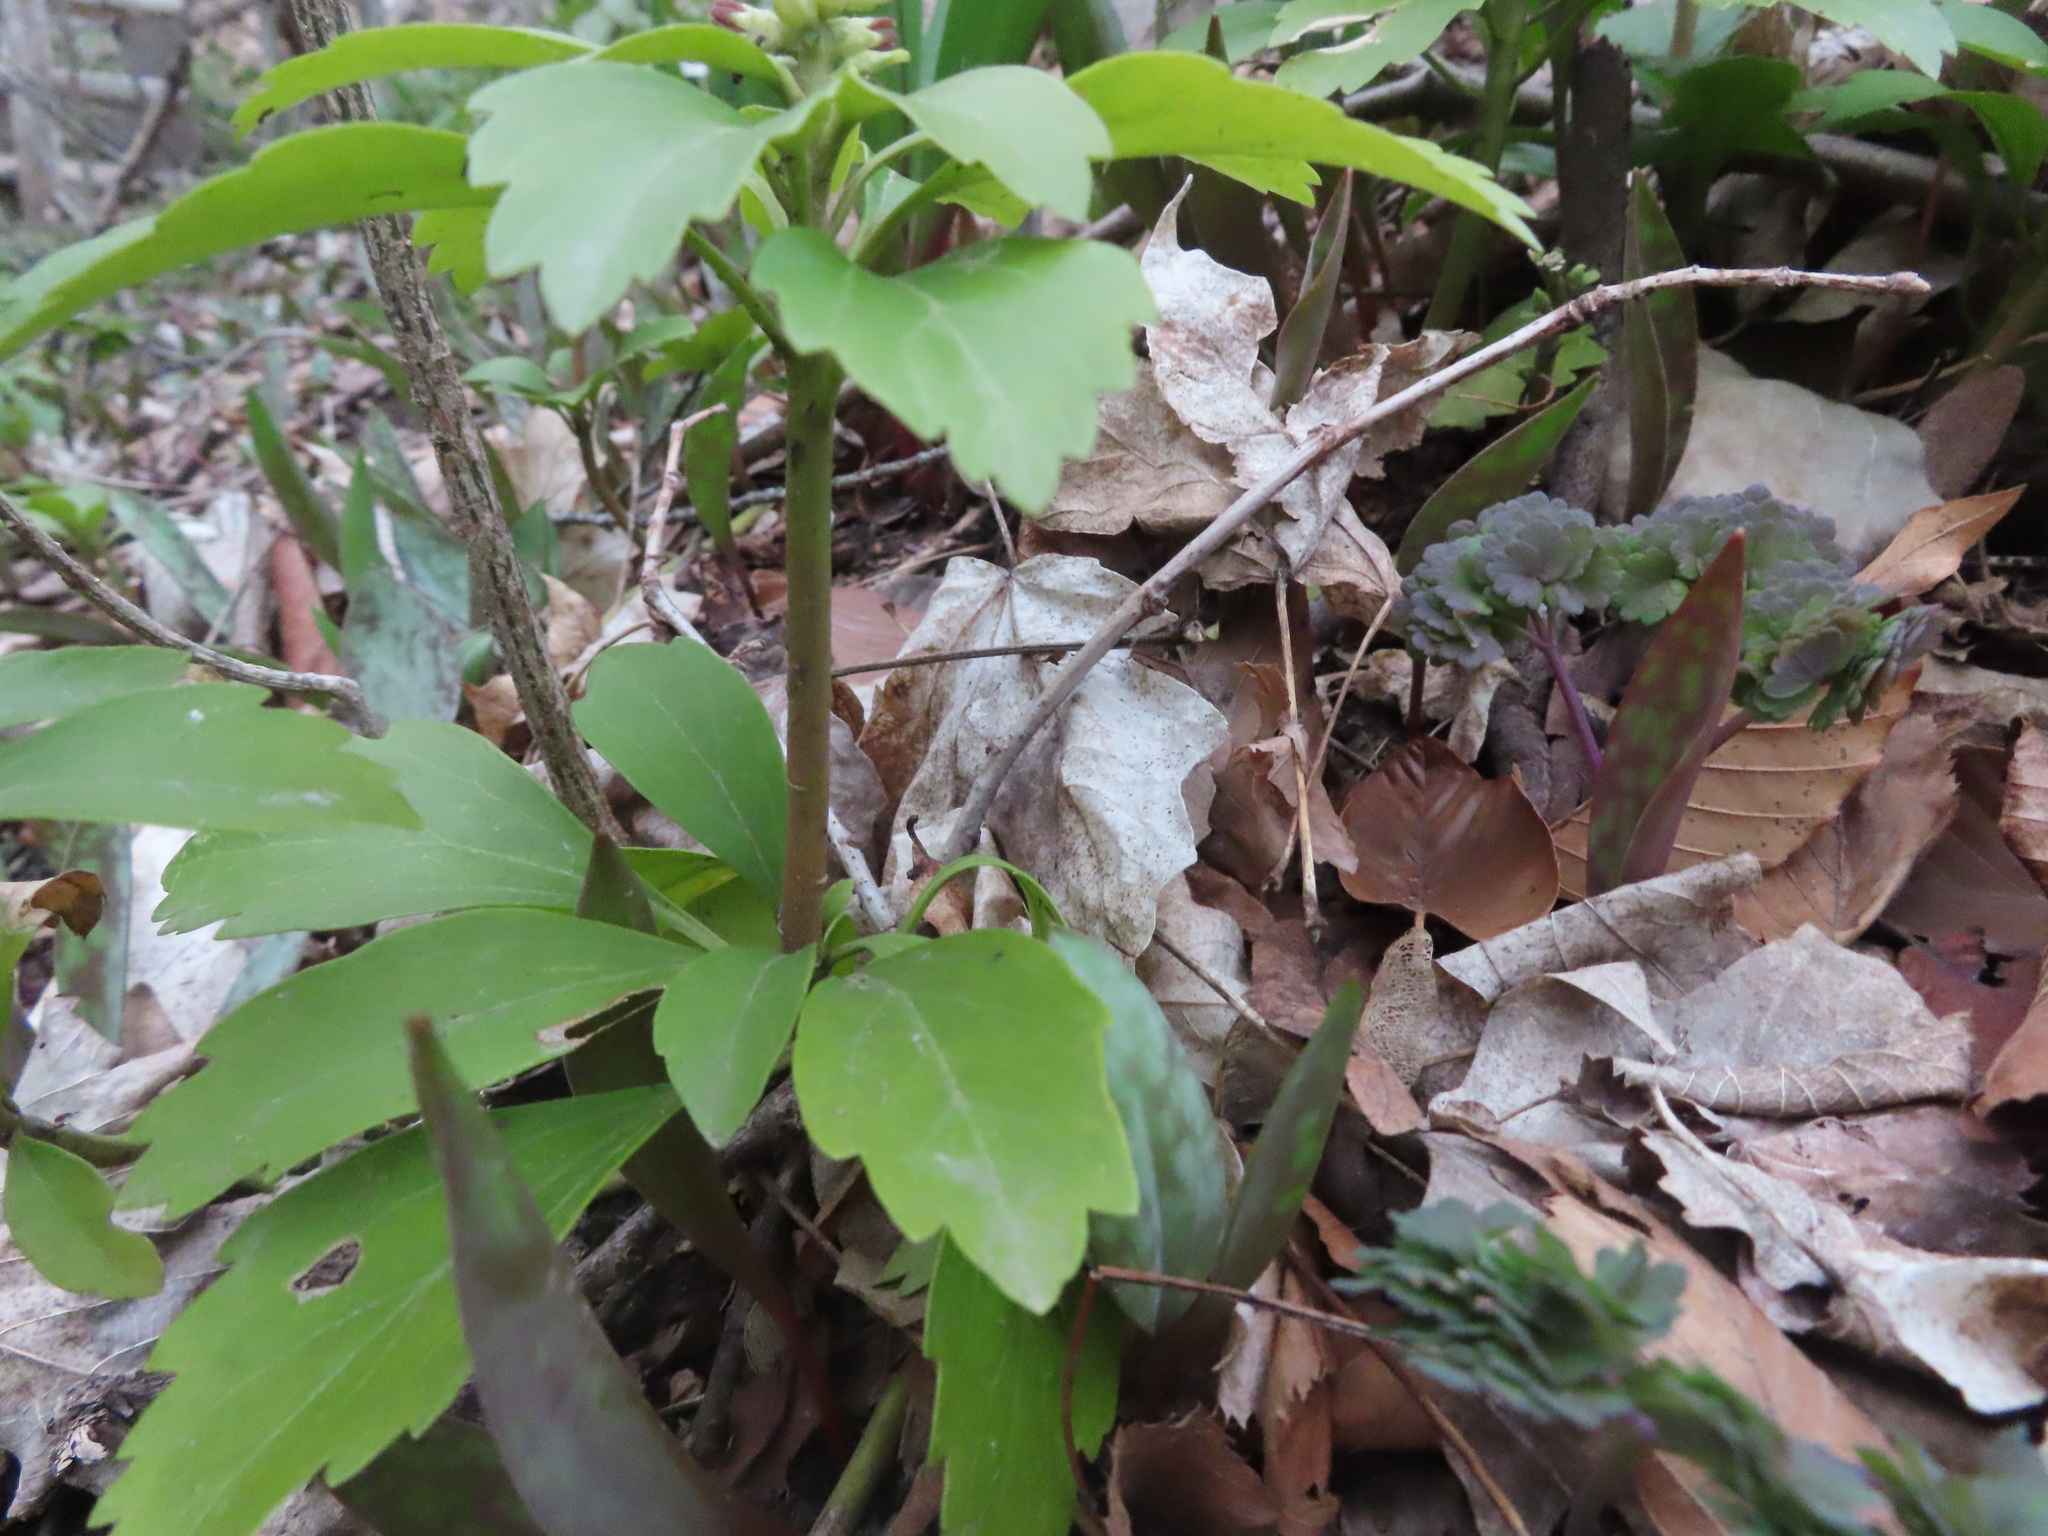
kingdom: Plantae
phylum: Tracheophyta
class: Magnoliopsida
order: Buxales
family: Buxaceae
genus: Pachysandra
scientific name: Pachysandra terminalis
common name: Japanese pachysandra
